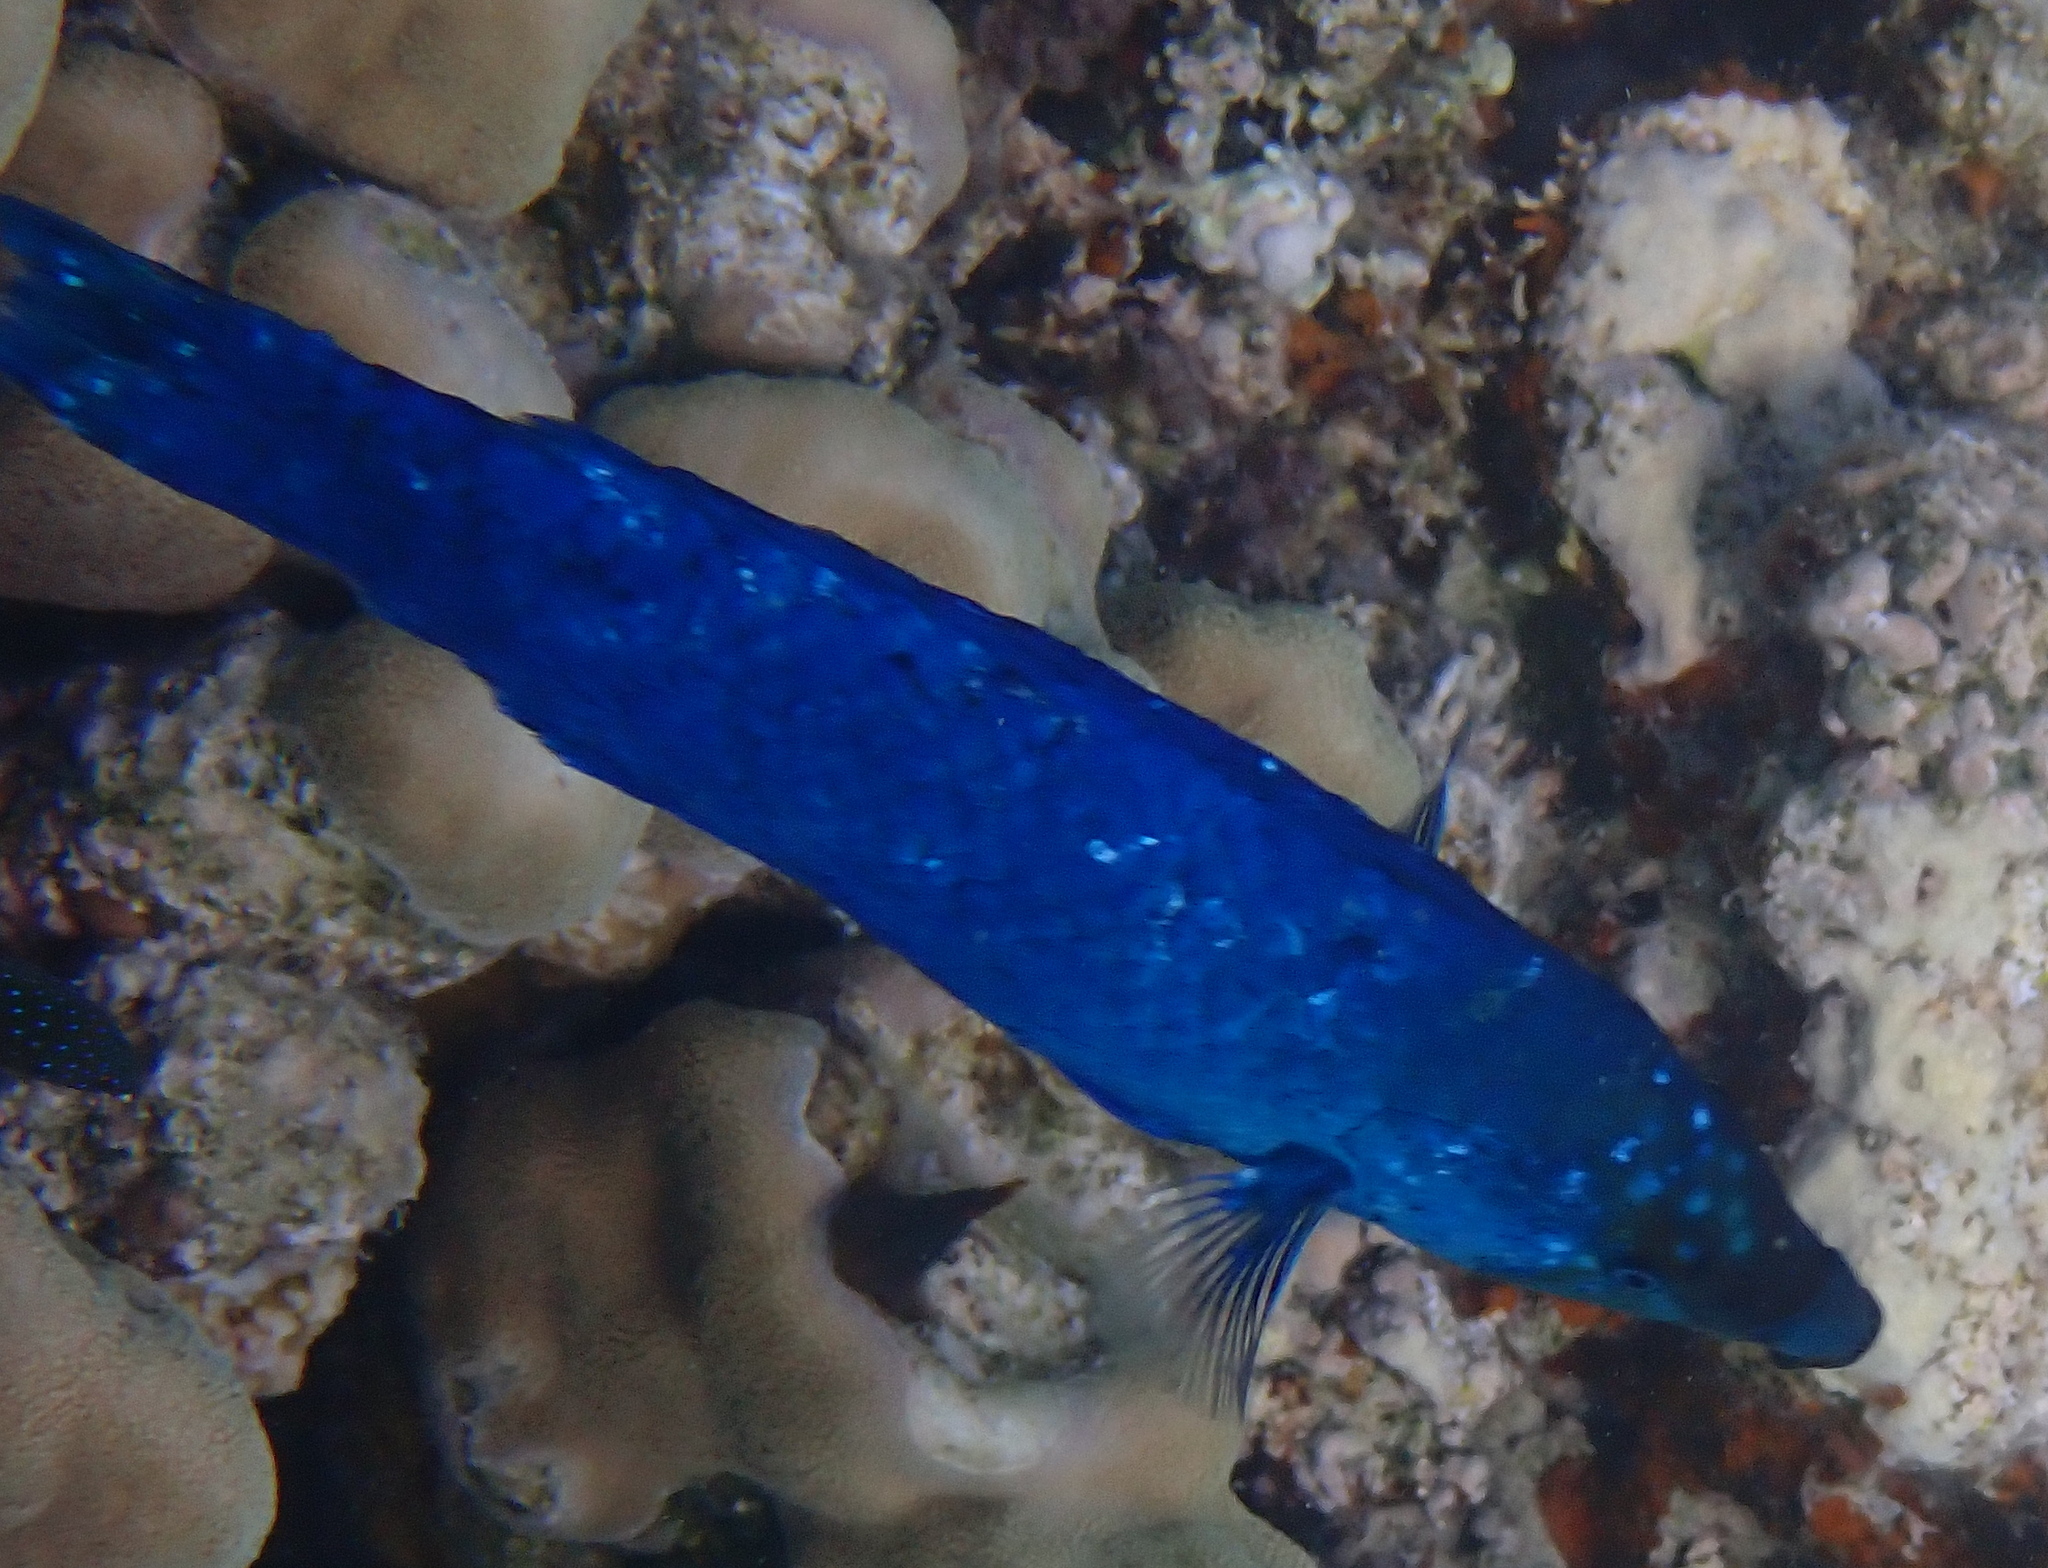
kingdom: Animalia
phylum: Chordata
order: Perciformes
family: Labridae
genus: Larabicus
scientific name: Larabicus quadrilineatus
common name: Fourline wrasse
